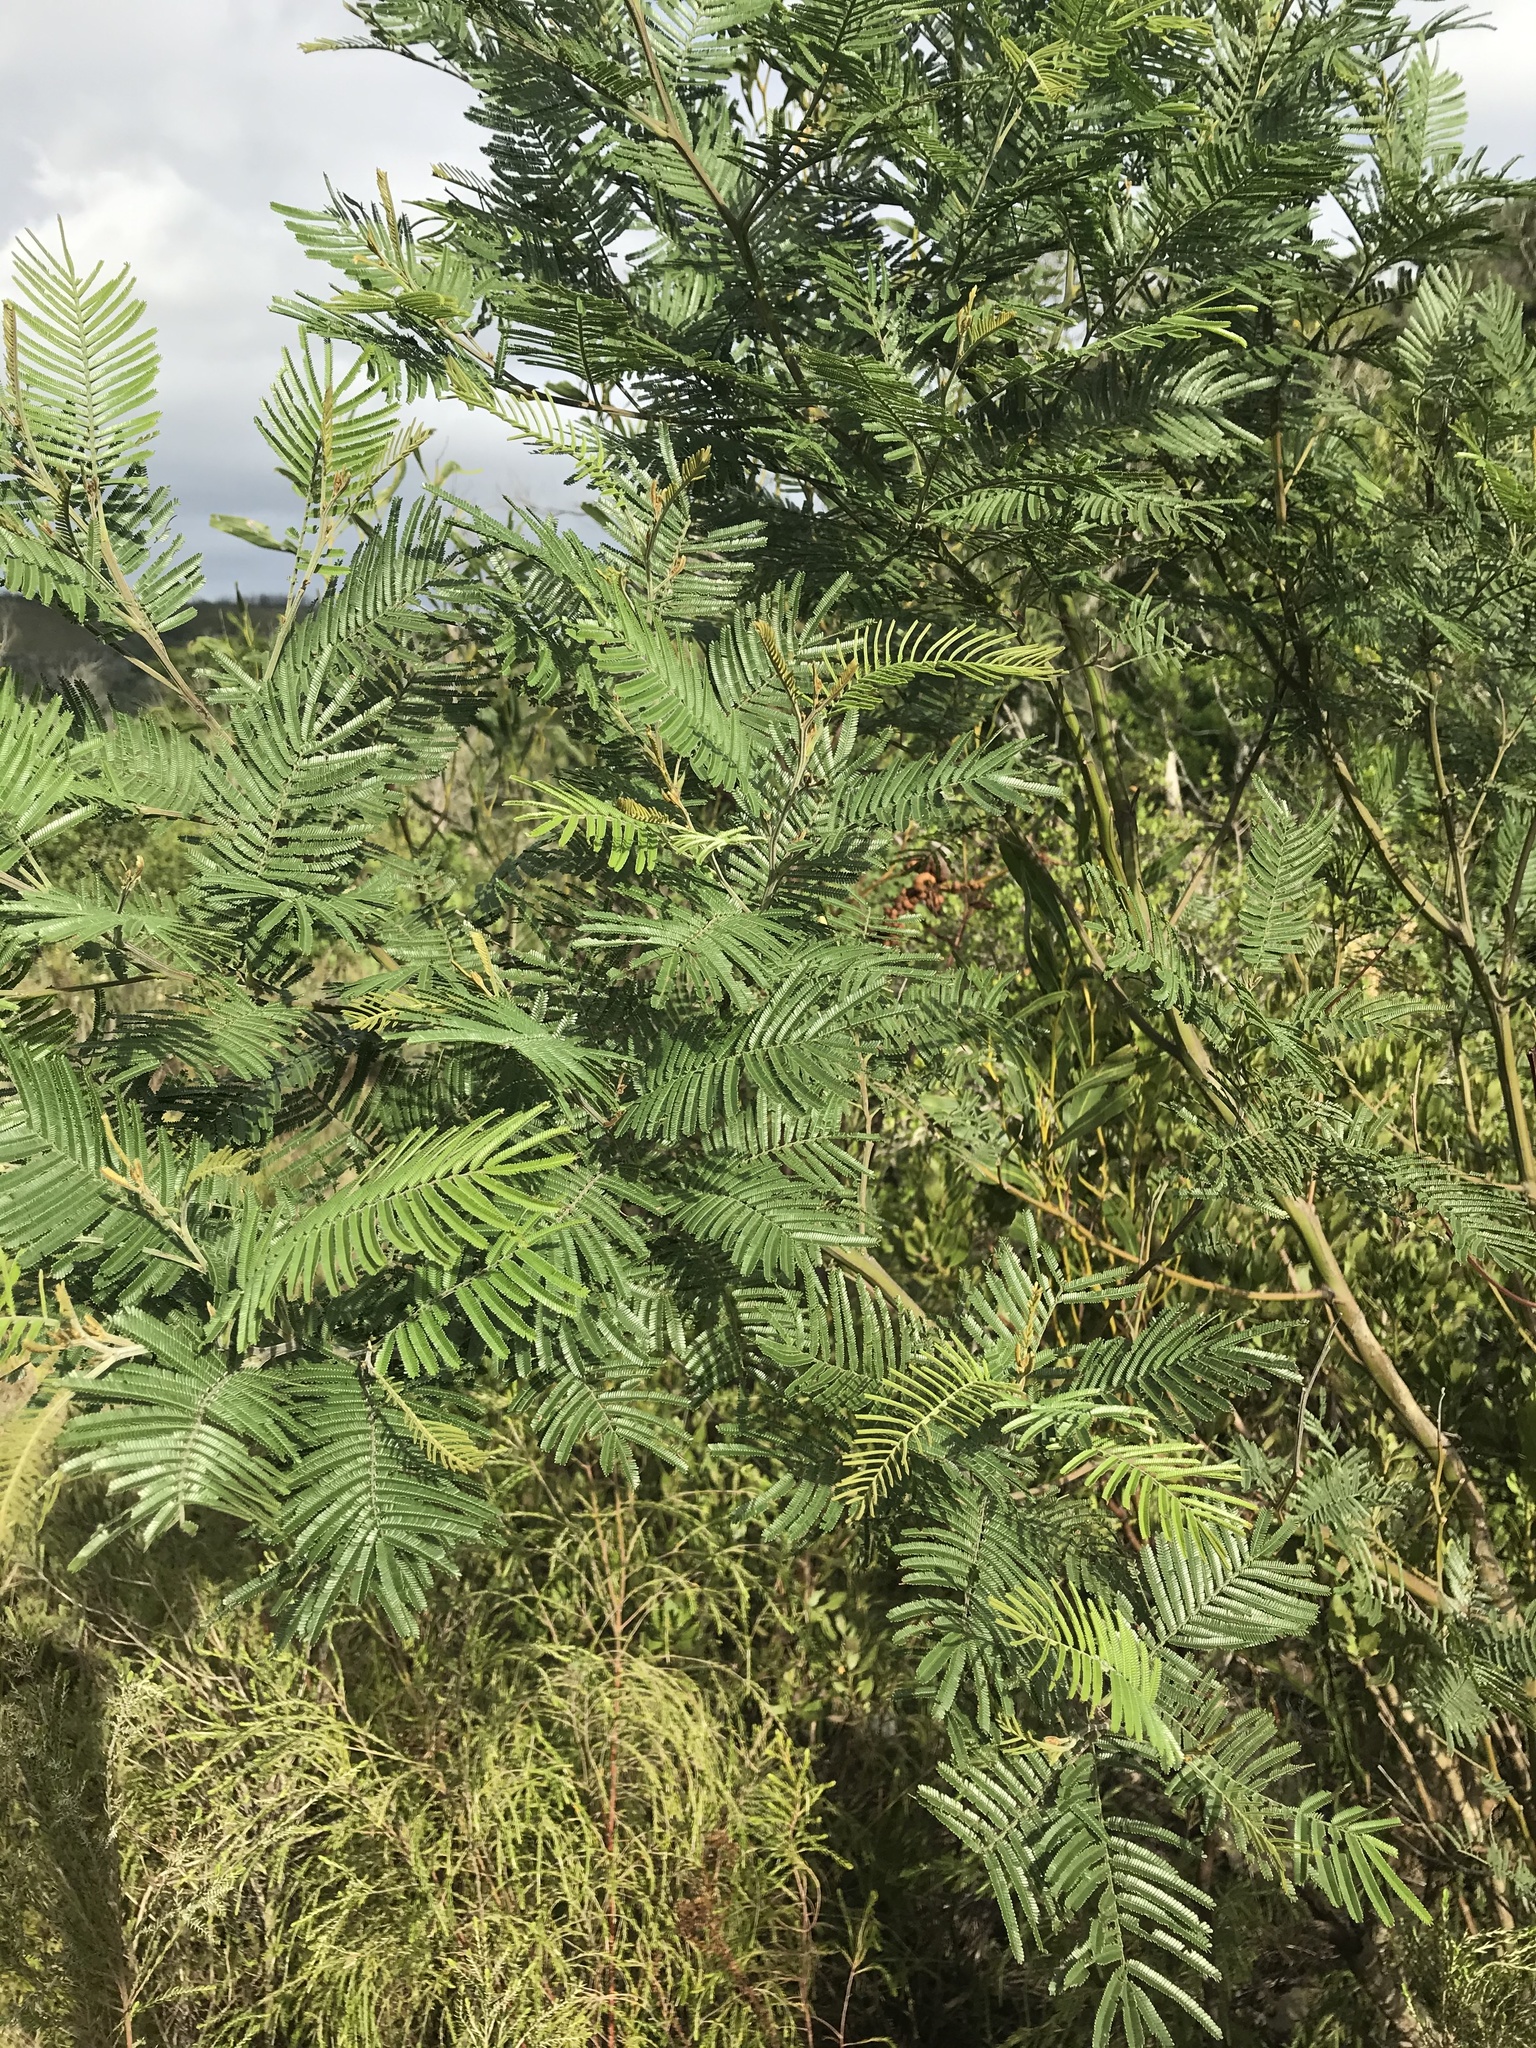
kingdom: Plantae
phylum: Tracheophyta
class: Magnoliopsida
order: Fabales
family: Fabaceae
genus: Acacia
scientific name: Acacia mearnsii
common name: Black wattle
